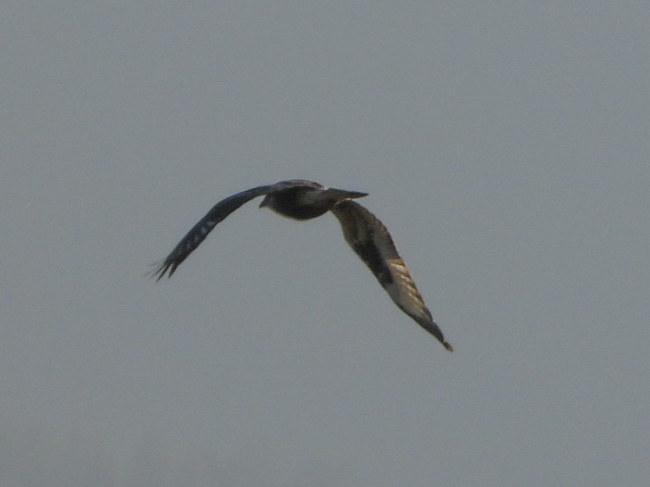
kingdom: Animalia
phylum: Chordata
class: Aves
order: Accipitriformes
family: Accipitridae
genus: Buteo
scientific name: Buteo lagopus
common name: Rough-legged buzzard
